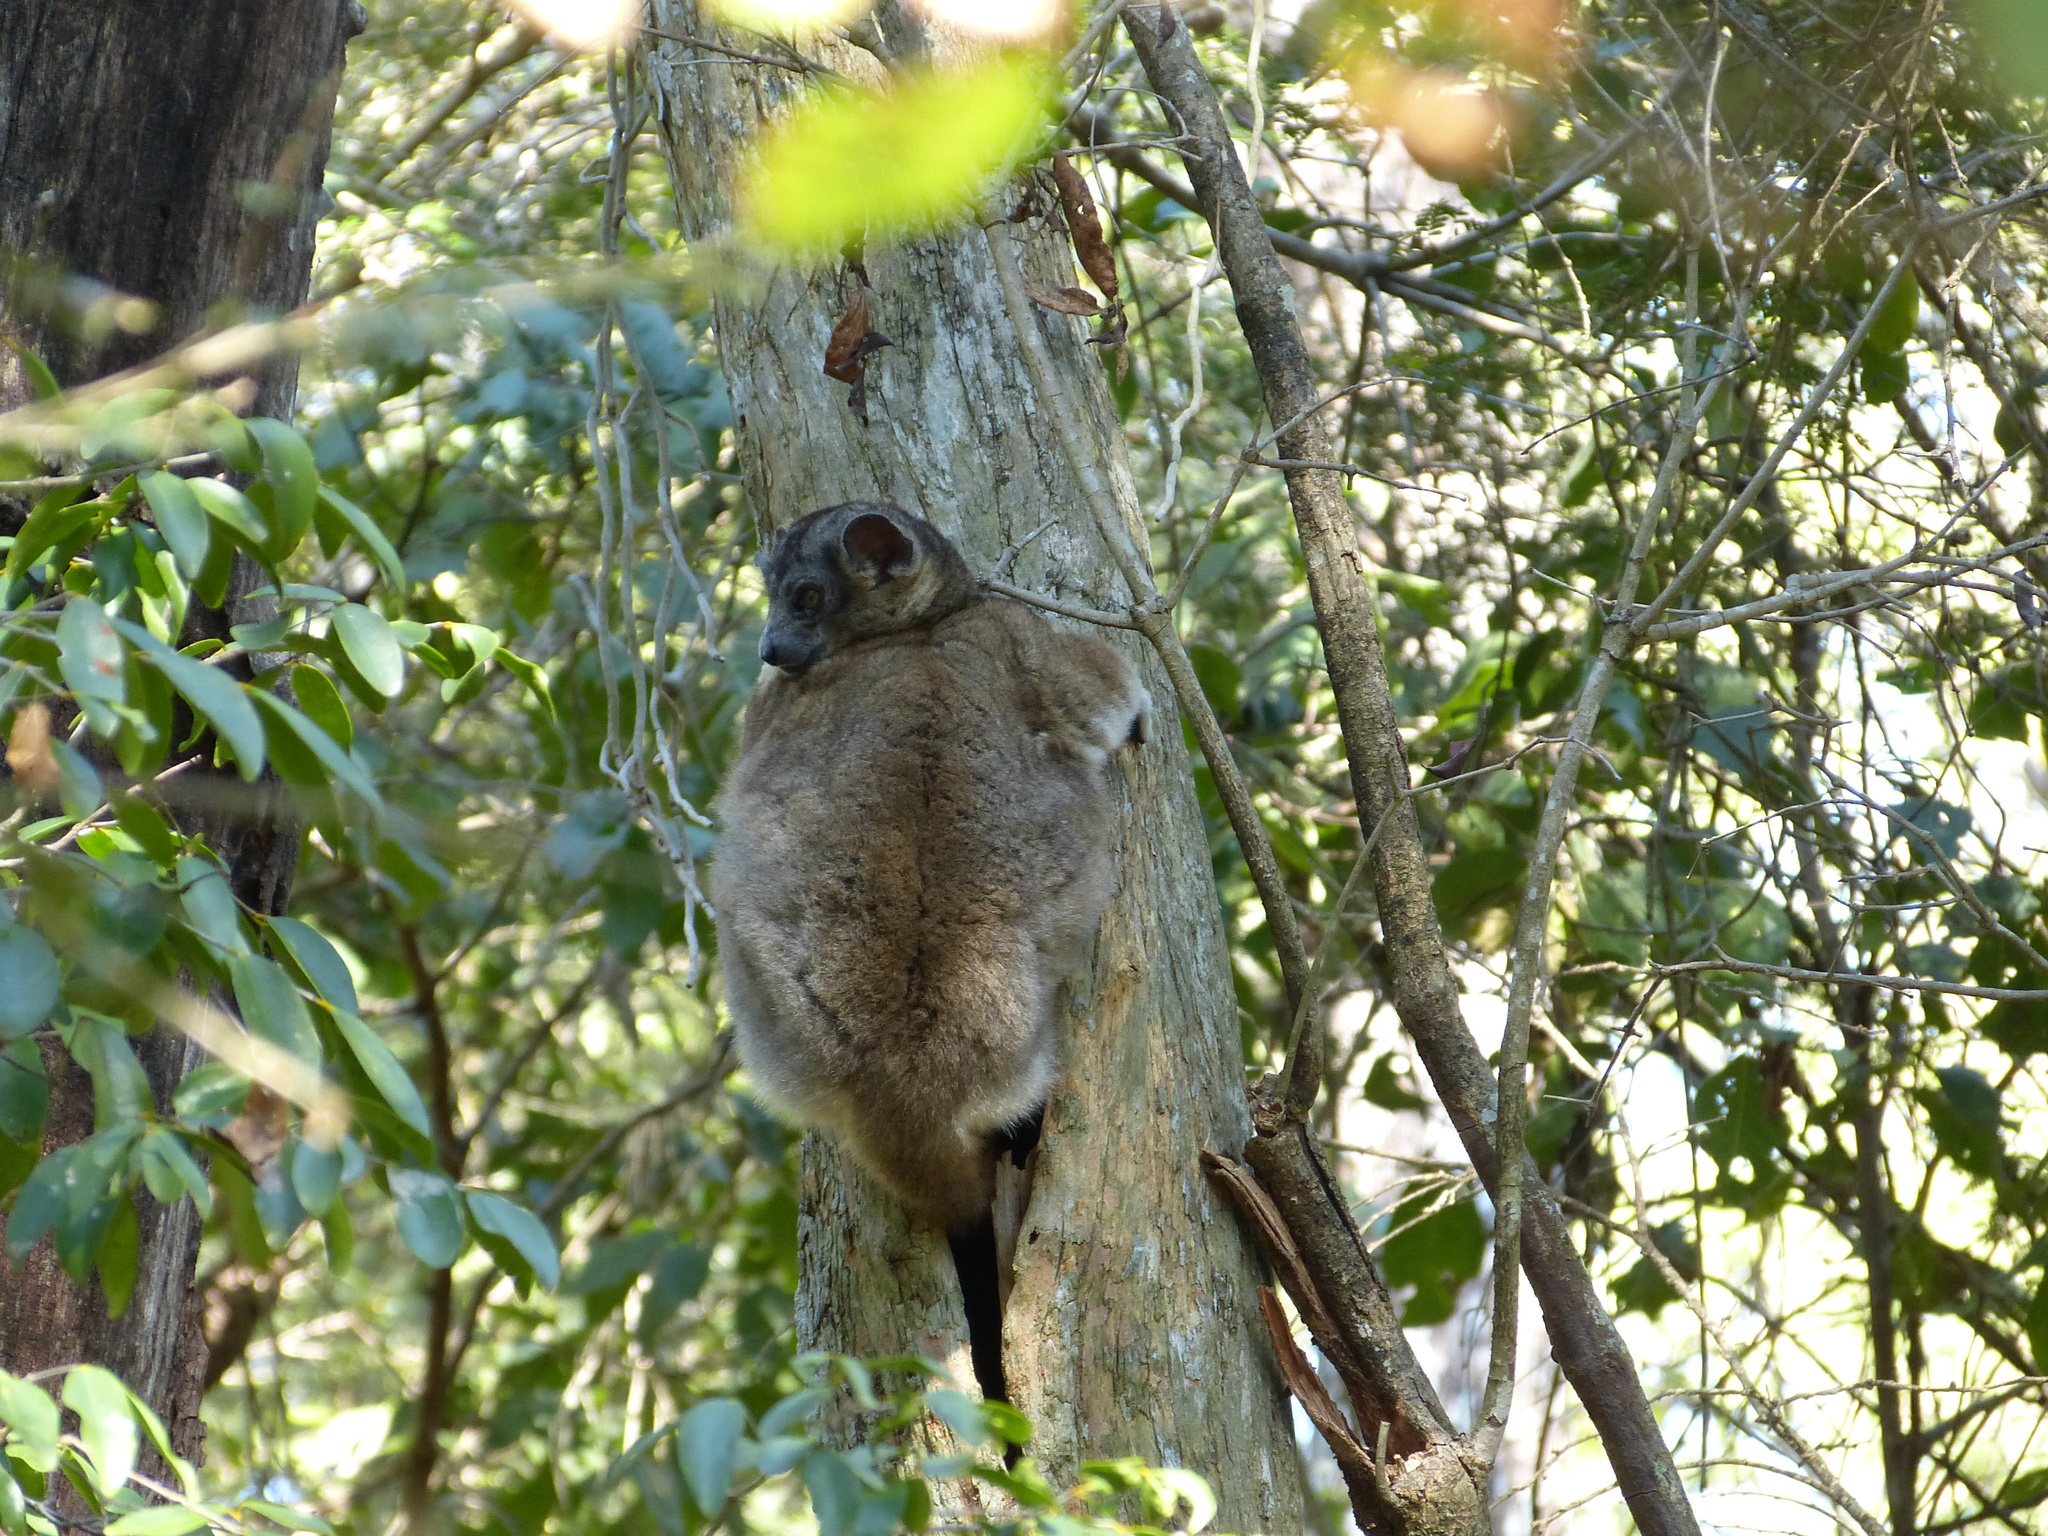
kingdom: Animalia
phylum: Chordata
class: Mammalia
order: Primates
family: Lepilemuridae
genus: Lepilemur
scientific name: Lepilemur hubbardi
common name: Zombitse sportive lemur
